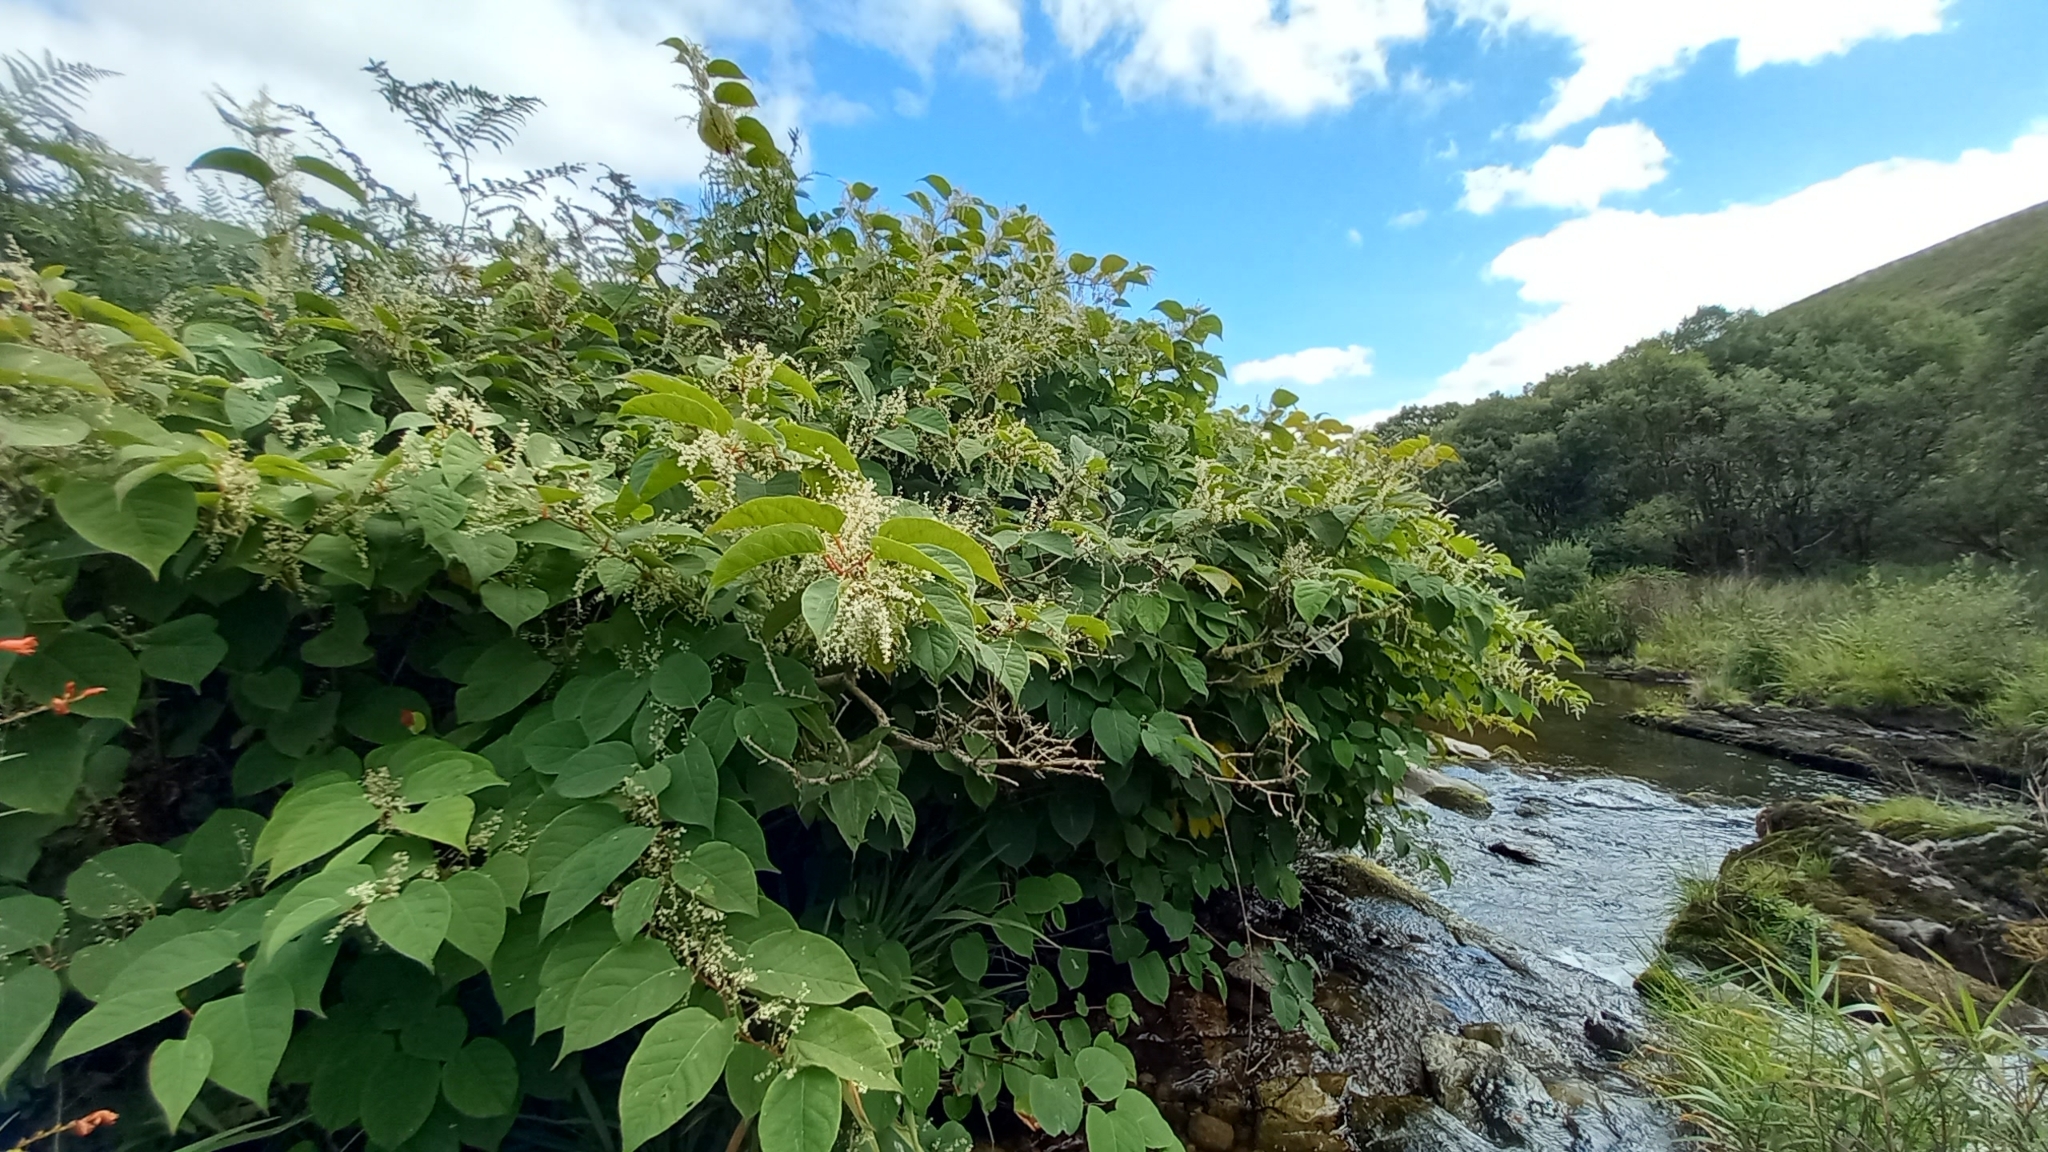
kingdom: Plantae
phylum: Tracheophyta
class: Magnoliopsida
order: Caryophyllales
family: Polygonaceae
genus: Reynoutria
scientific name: Reynoutria japonica
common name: Japanese knotweed
